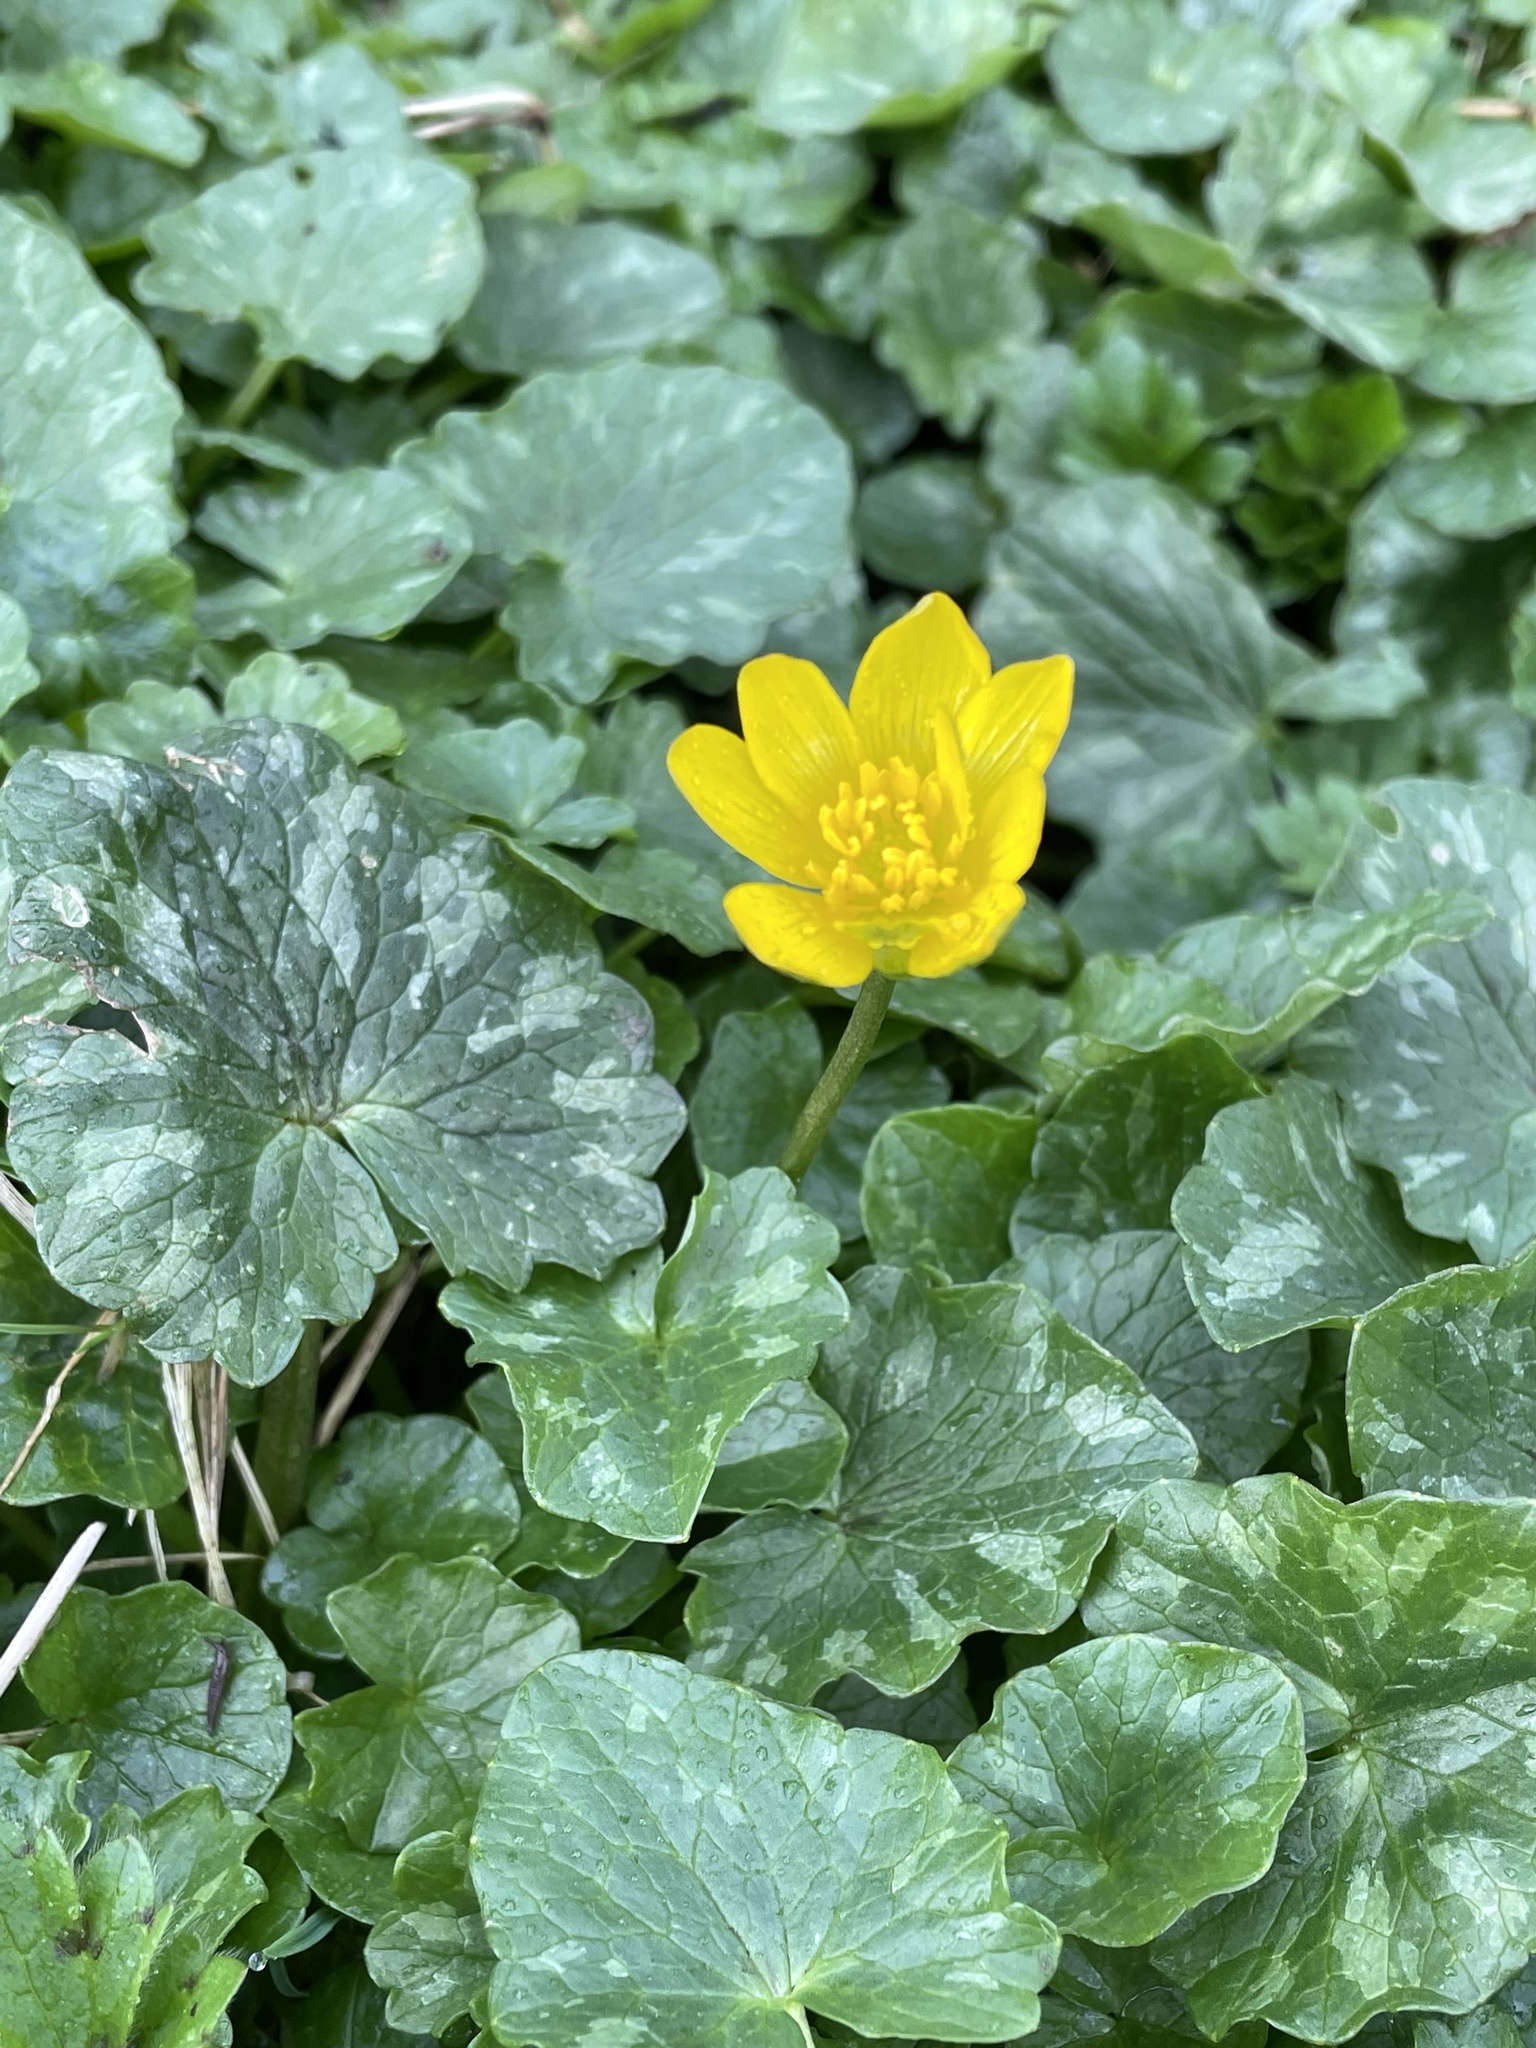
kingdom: Plantae
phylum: Tracheophyta
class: Magnoliopsida
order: Ranunculales
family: Ranunculaceae
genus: Ficaria
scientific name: Ficaria verna
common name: Lesser celandine
